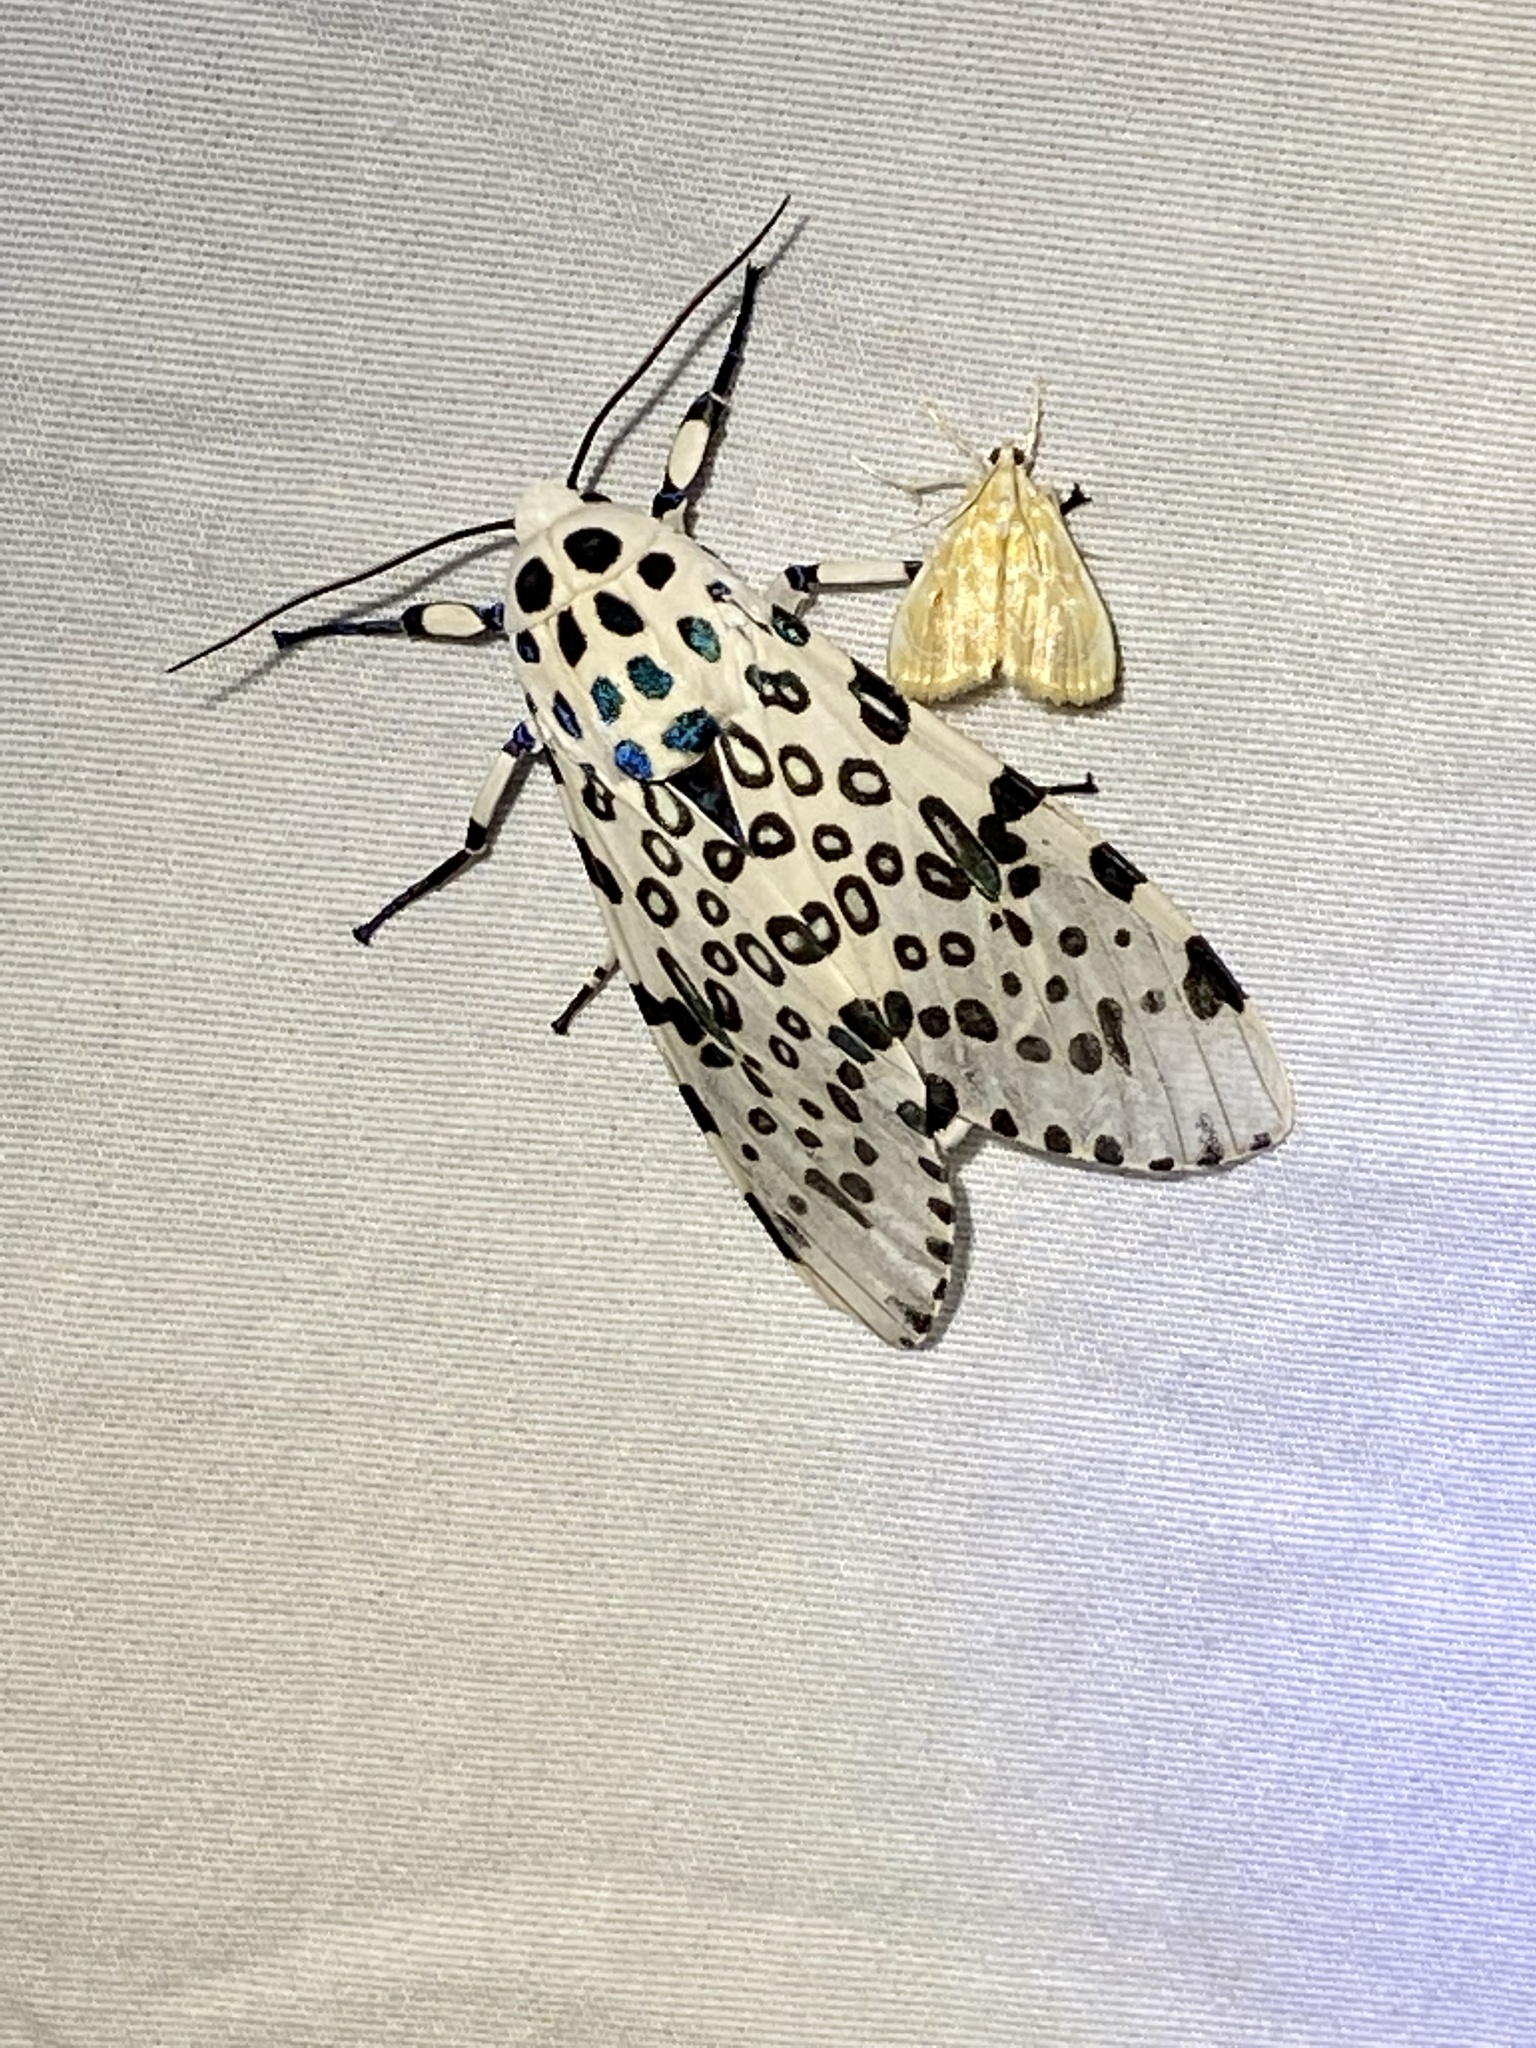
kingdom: Animalia
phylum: Arthropoda
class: Insecta
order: Lepidoptera
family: Erebidae
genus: Hypercompe
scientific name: Hypercompe scribonia
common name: Giant leopard moth
